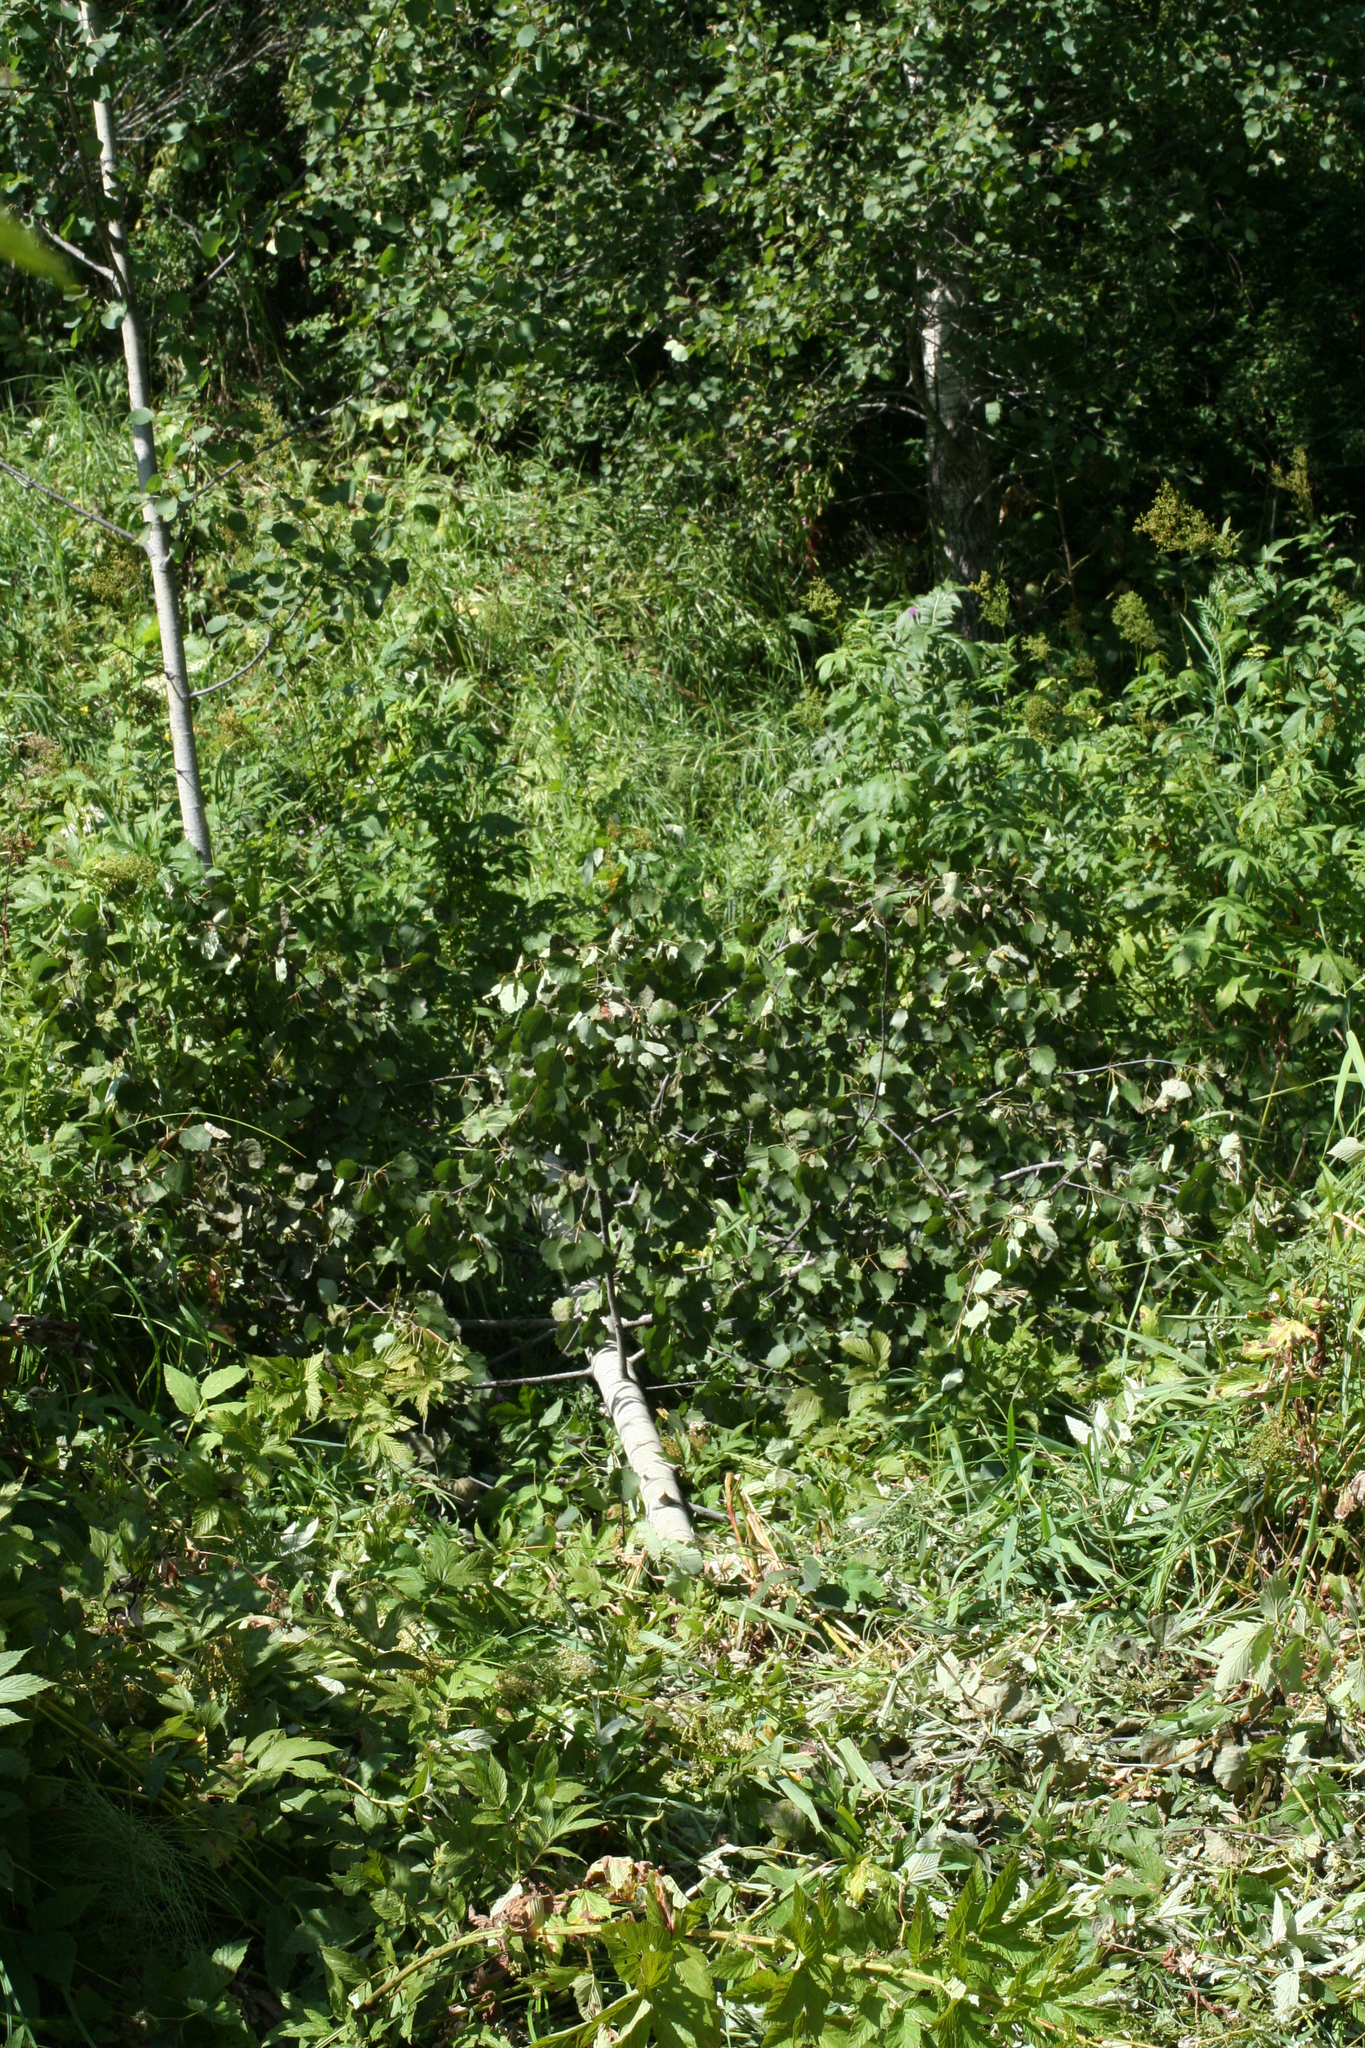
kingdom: Animalia
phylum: Chordata
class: Mammalia
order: Rodentia
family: Castoridae
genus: Castor
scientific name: Castor fiber
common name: Eurasian beaver
